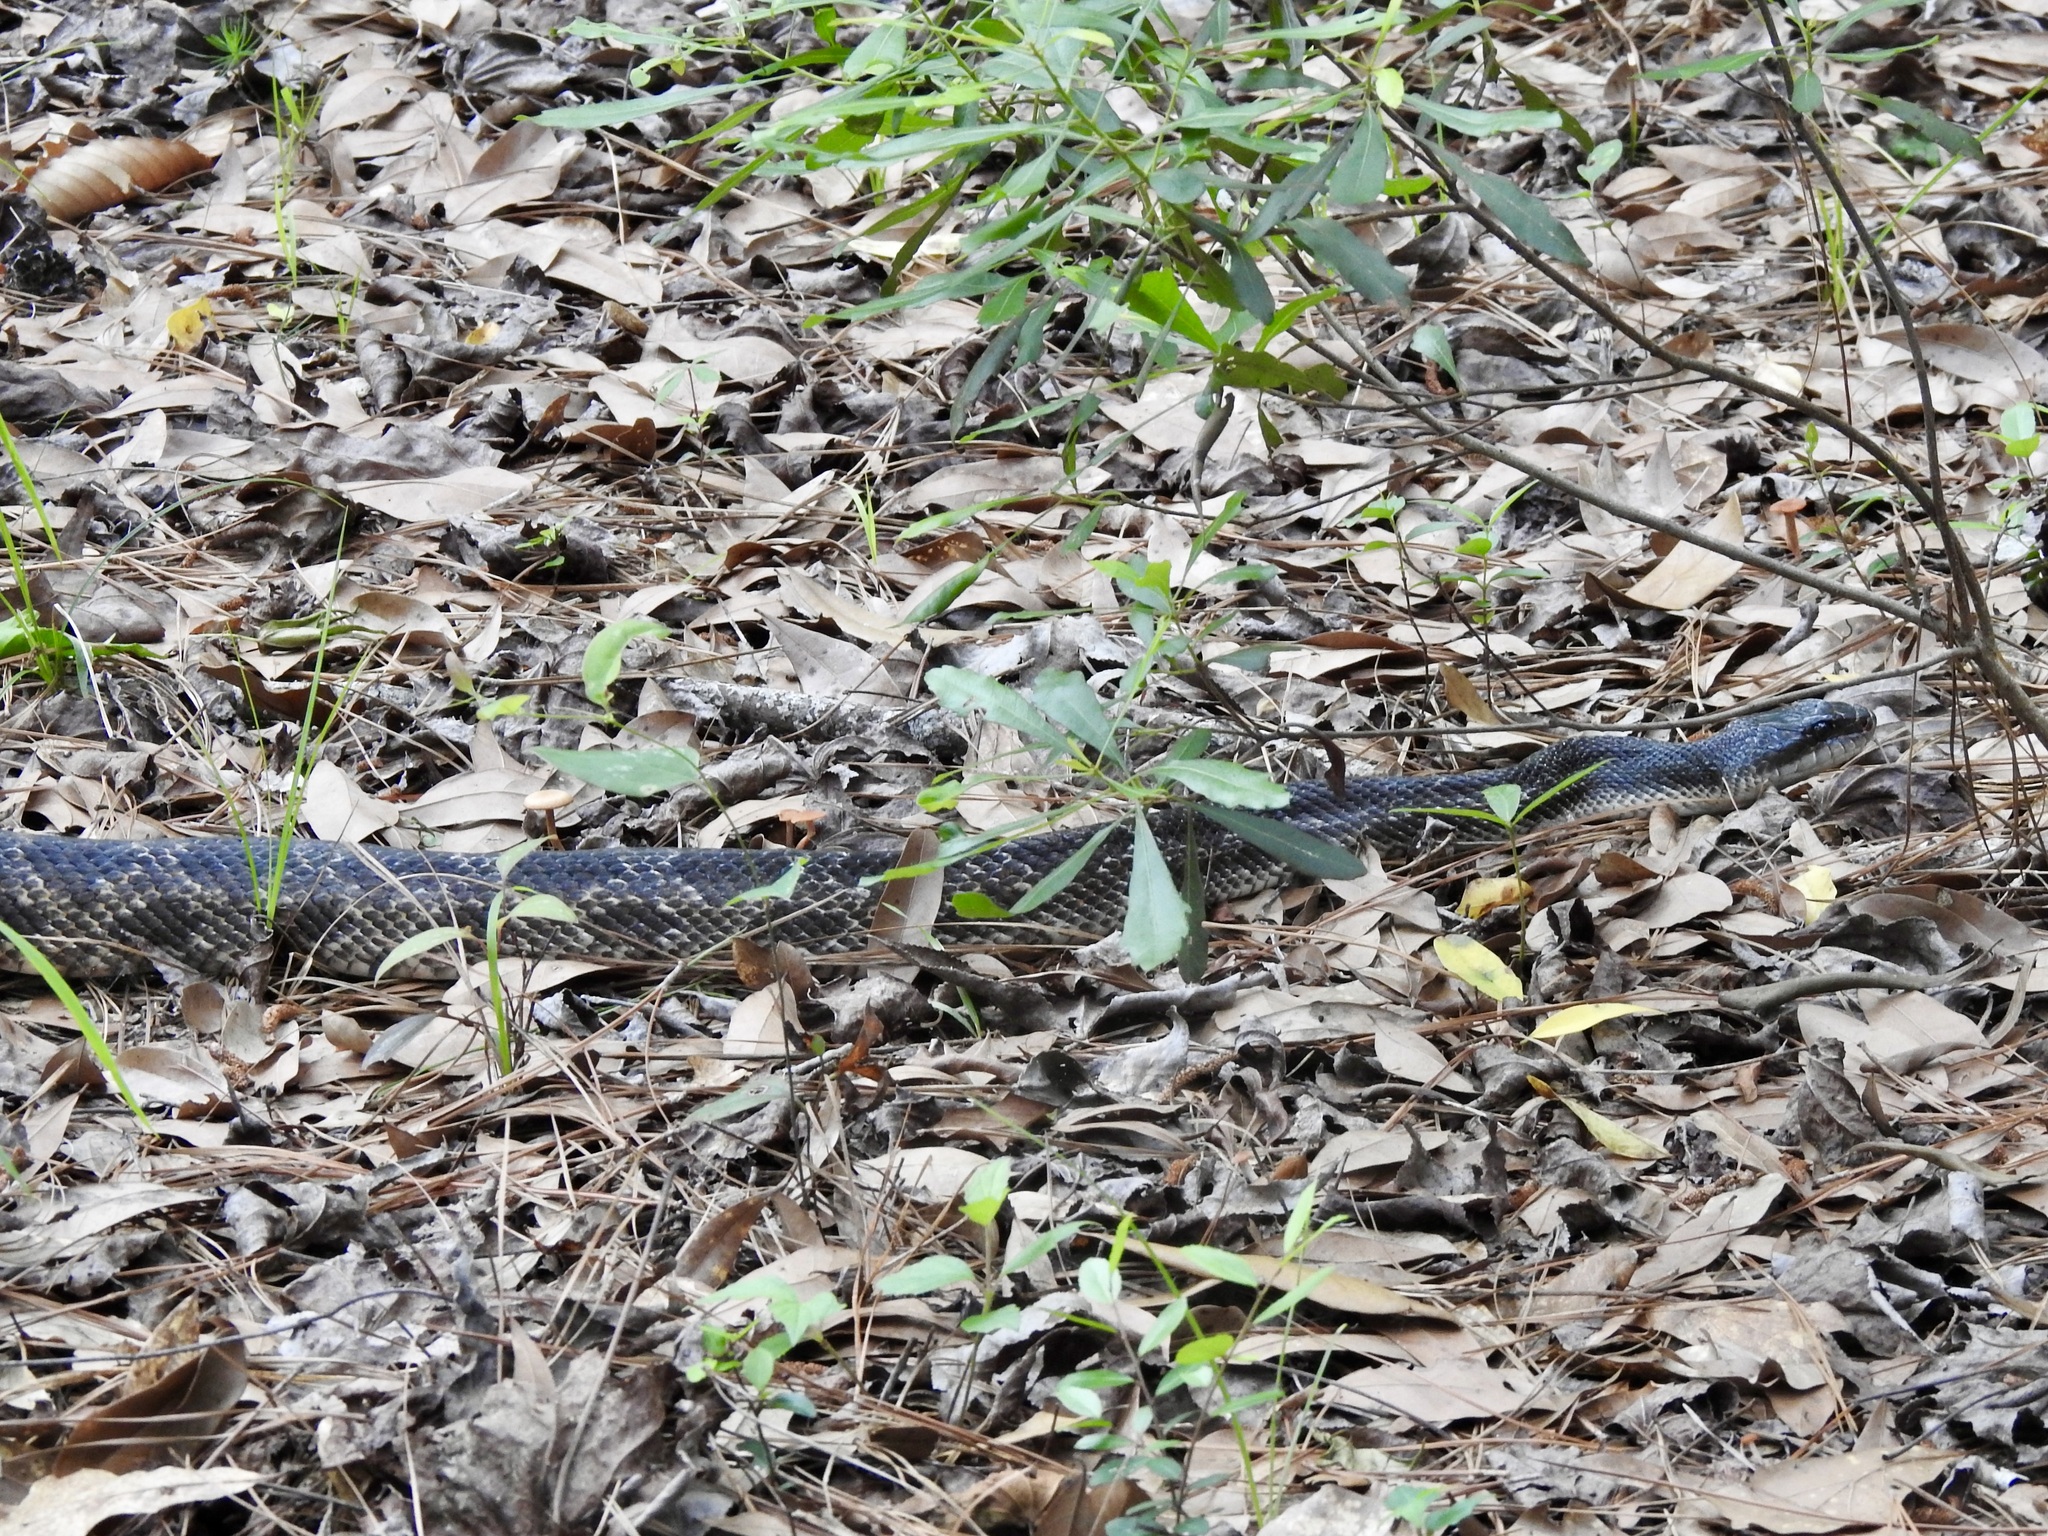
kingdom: Animalia
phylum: Chordata
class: Squamata
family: Colubridae
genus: Pantherophis
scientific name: Pantherophis obsoletus
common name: Black rat snake
